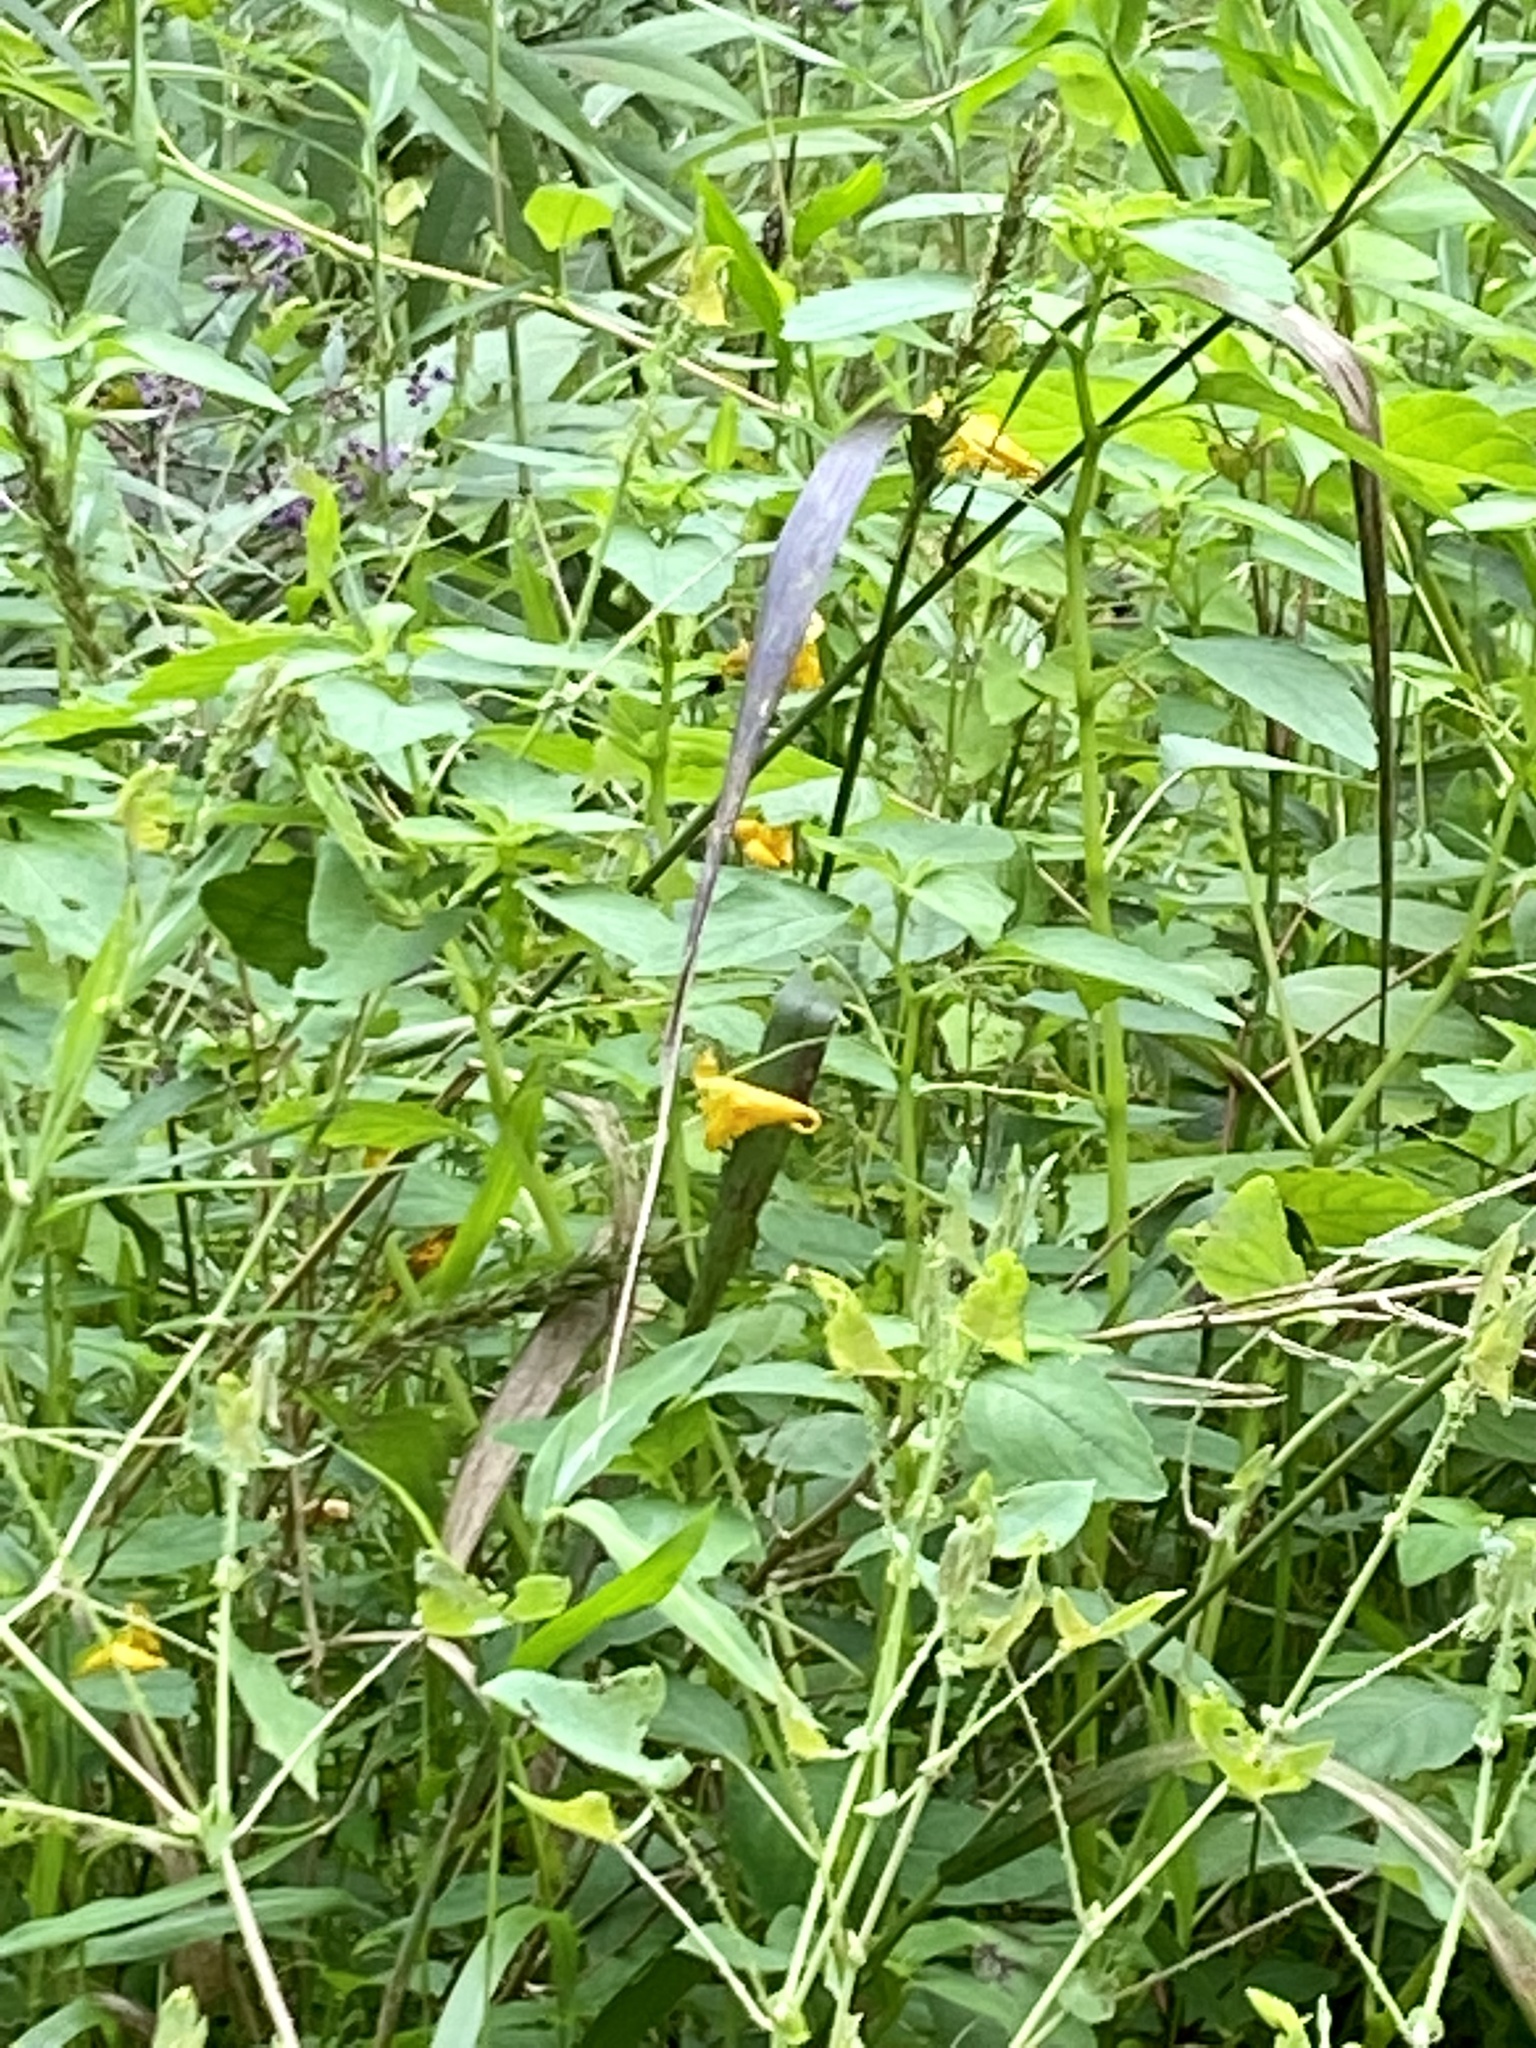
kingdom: Plantae
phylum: Tracheophyta
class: Magnoliopsida
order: Ericales
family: Balsaminaceae
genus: Impatiens
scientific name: Impatiens capensis
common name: Orange balsam
